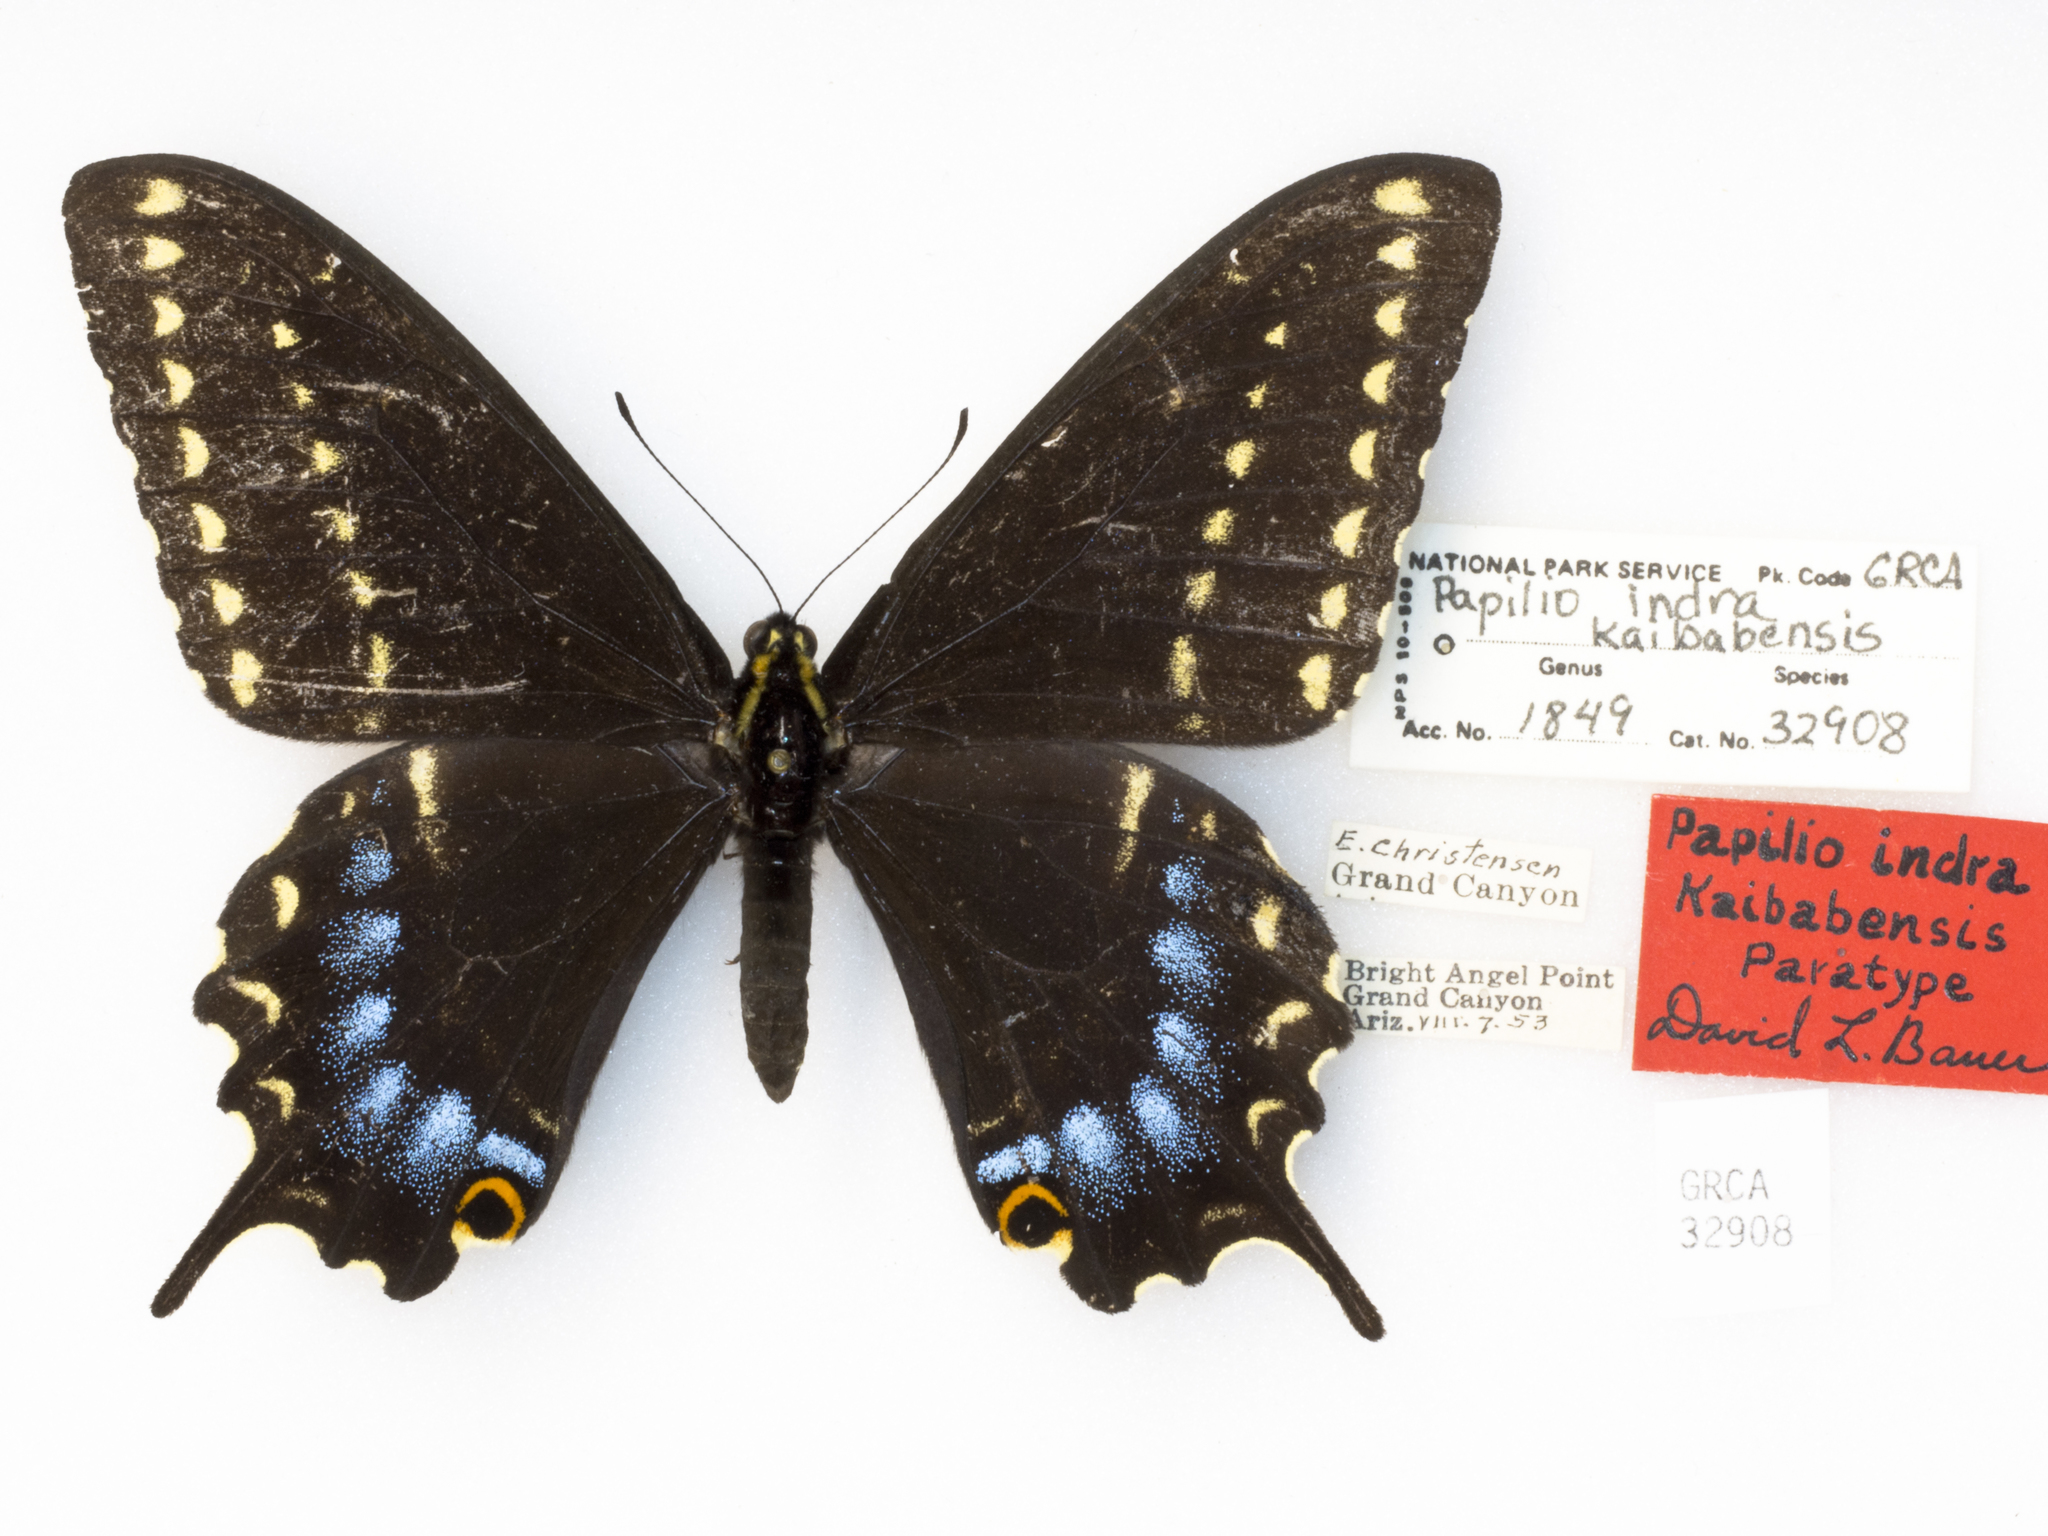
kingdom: Animalia
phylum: Arthropoda
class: Insecta
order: Lepidoptera
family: Papilionidae
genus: Papilio
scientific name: Papilio indra
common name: Cliff swallowtail
